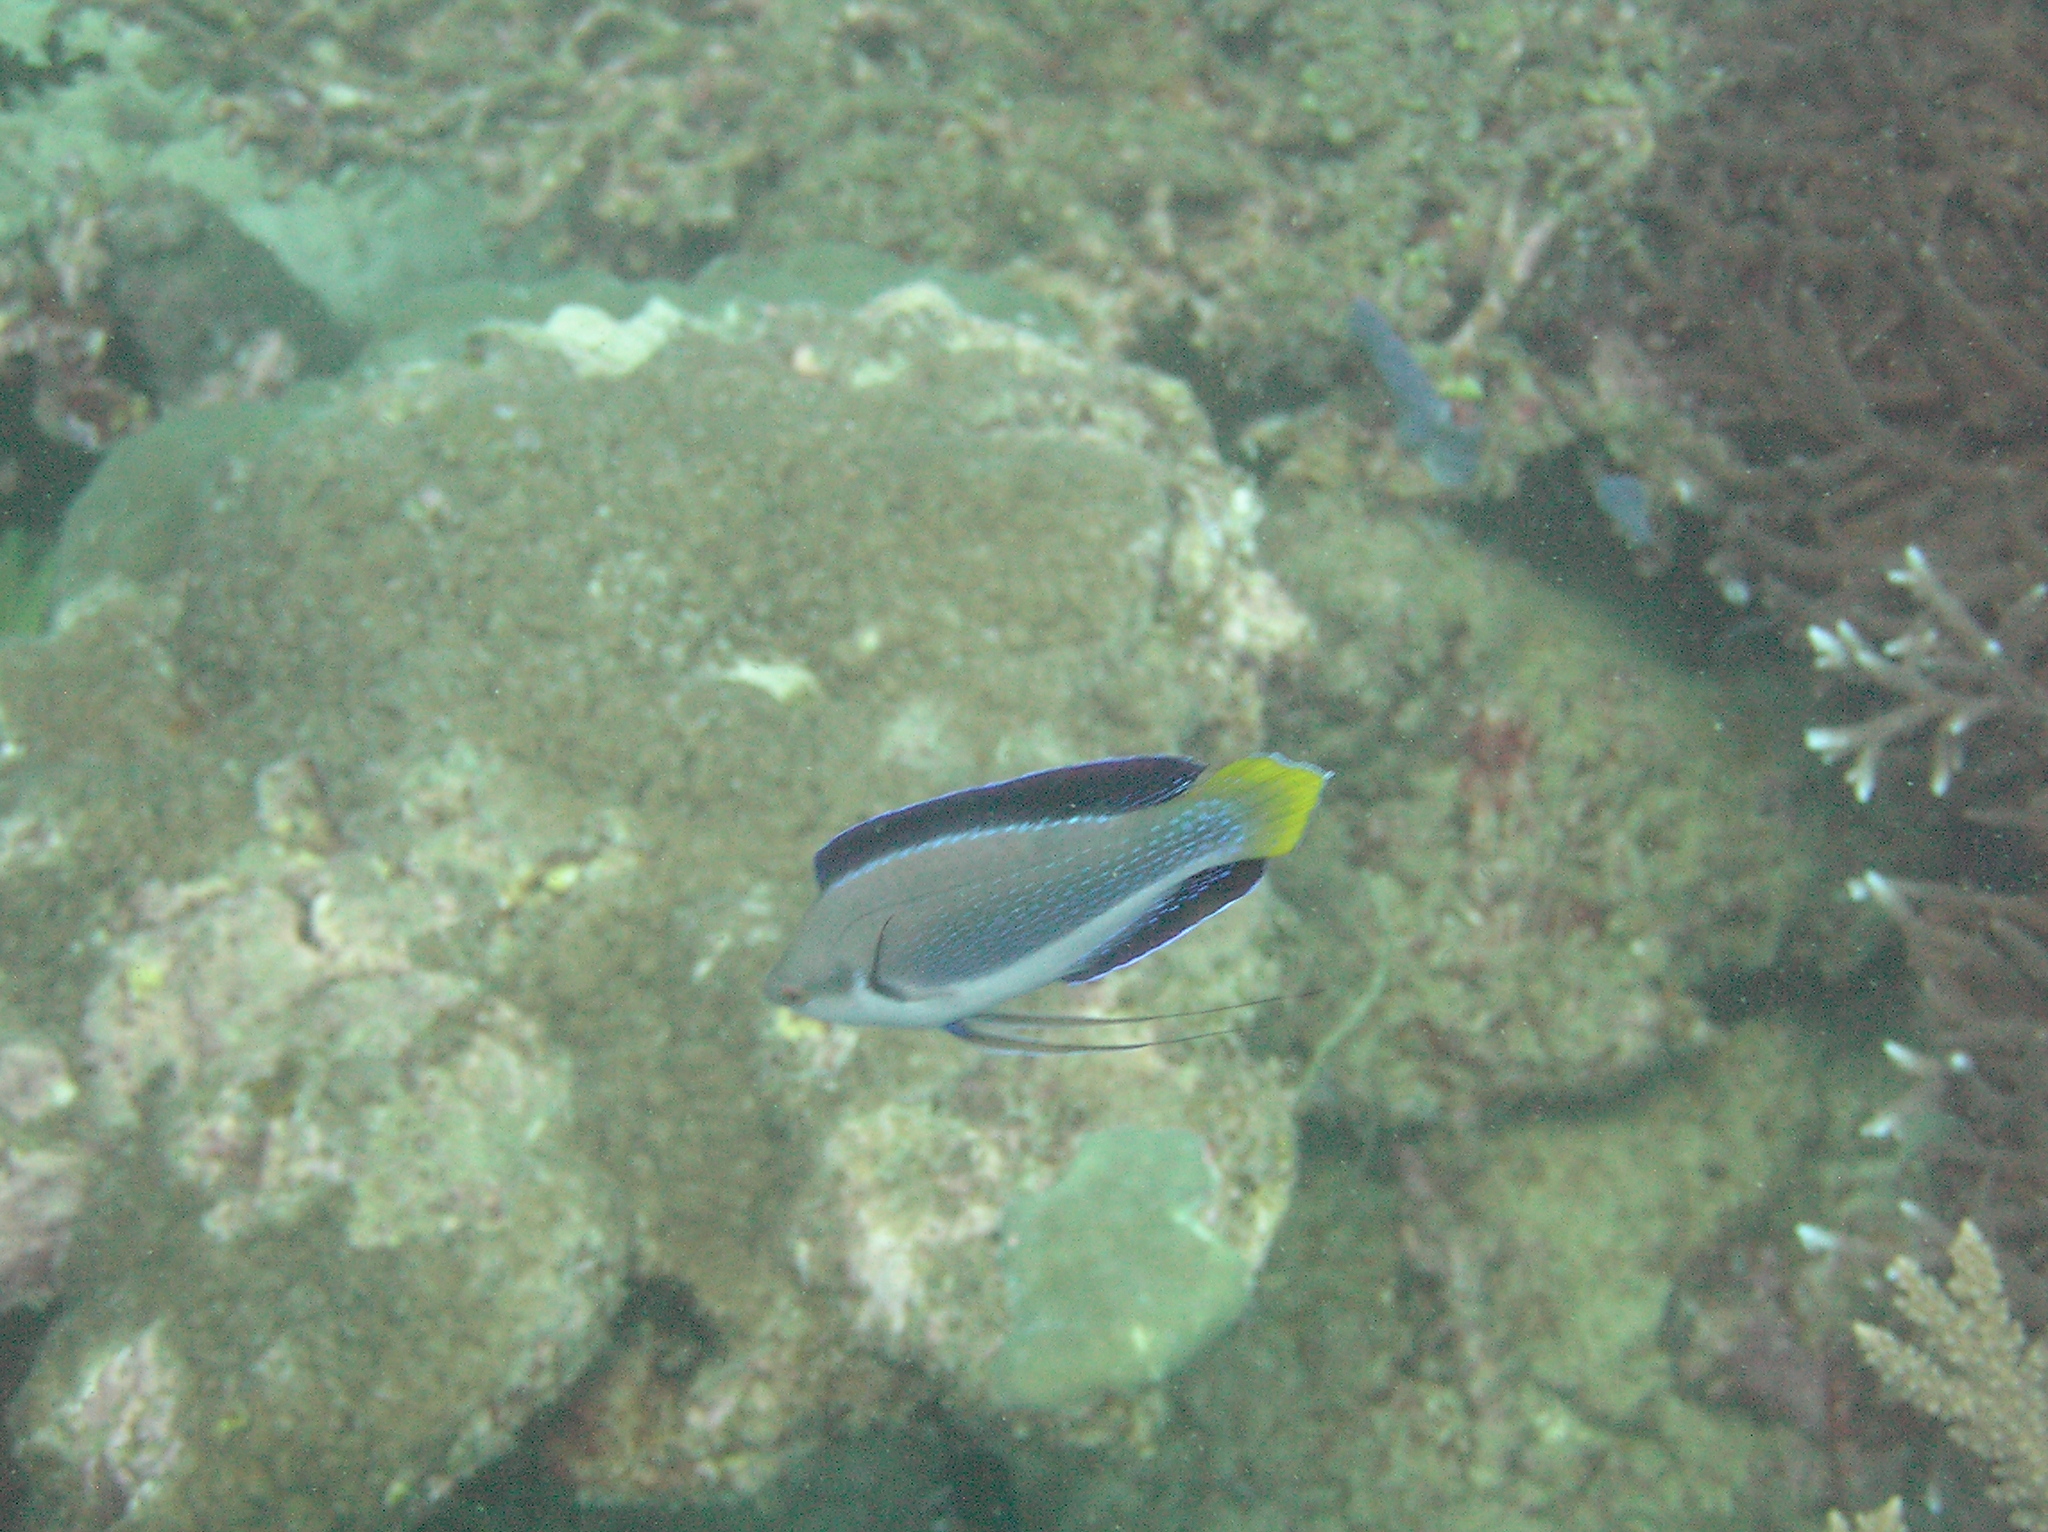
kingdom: Animalia
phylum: Chordata
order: Perciformes
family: Labridae
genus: Cirrhilabrus
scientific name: Cirrhilabrus punctatus
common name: Dotted wrasse
